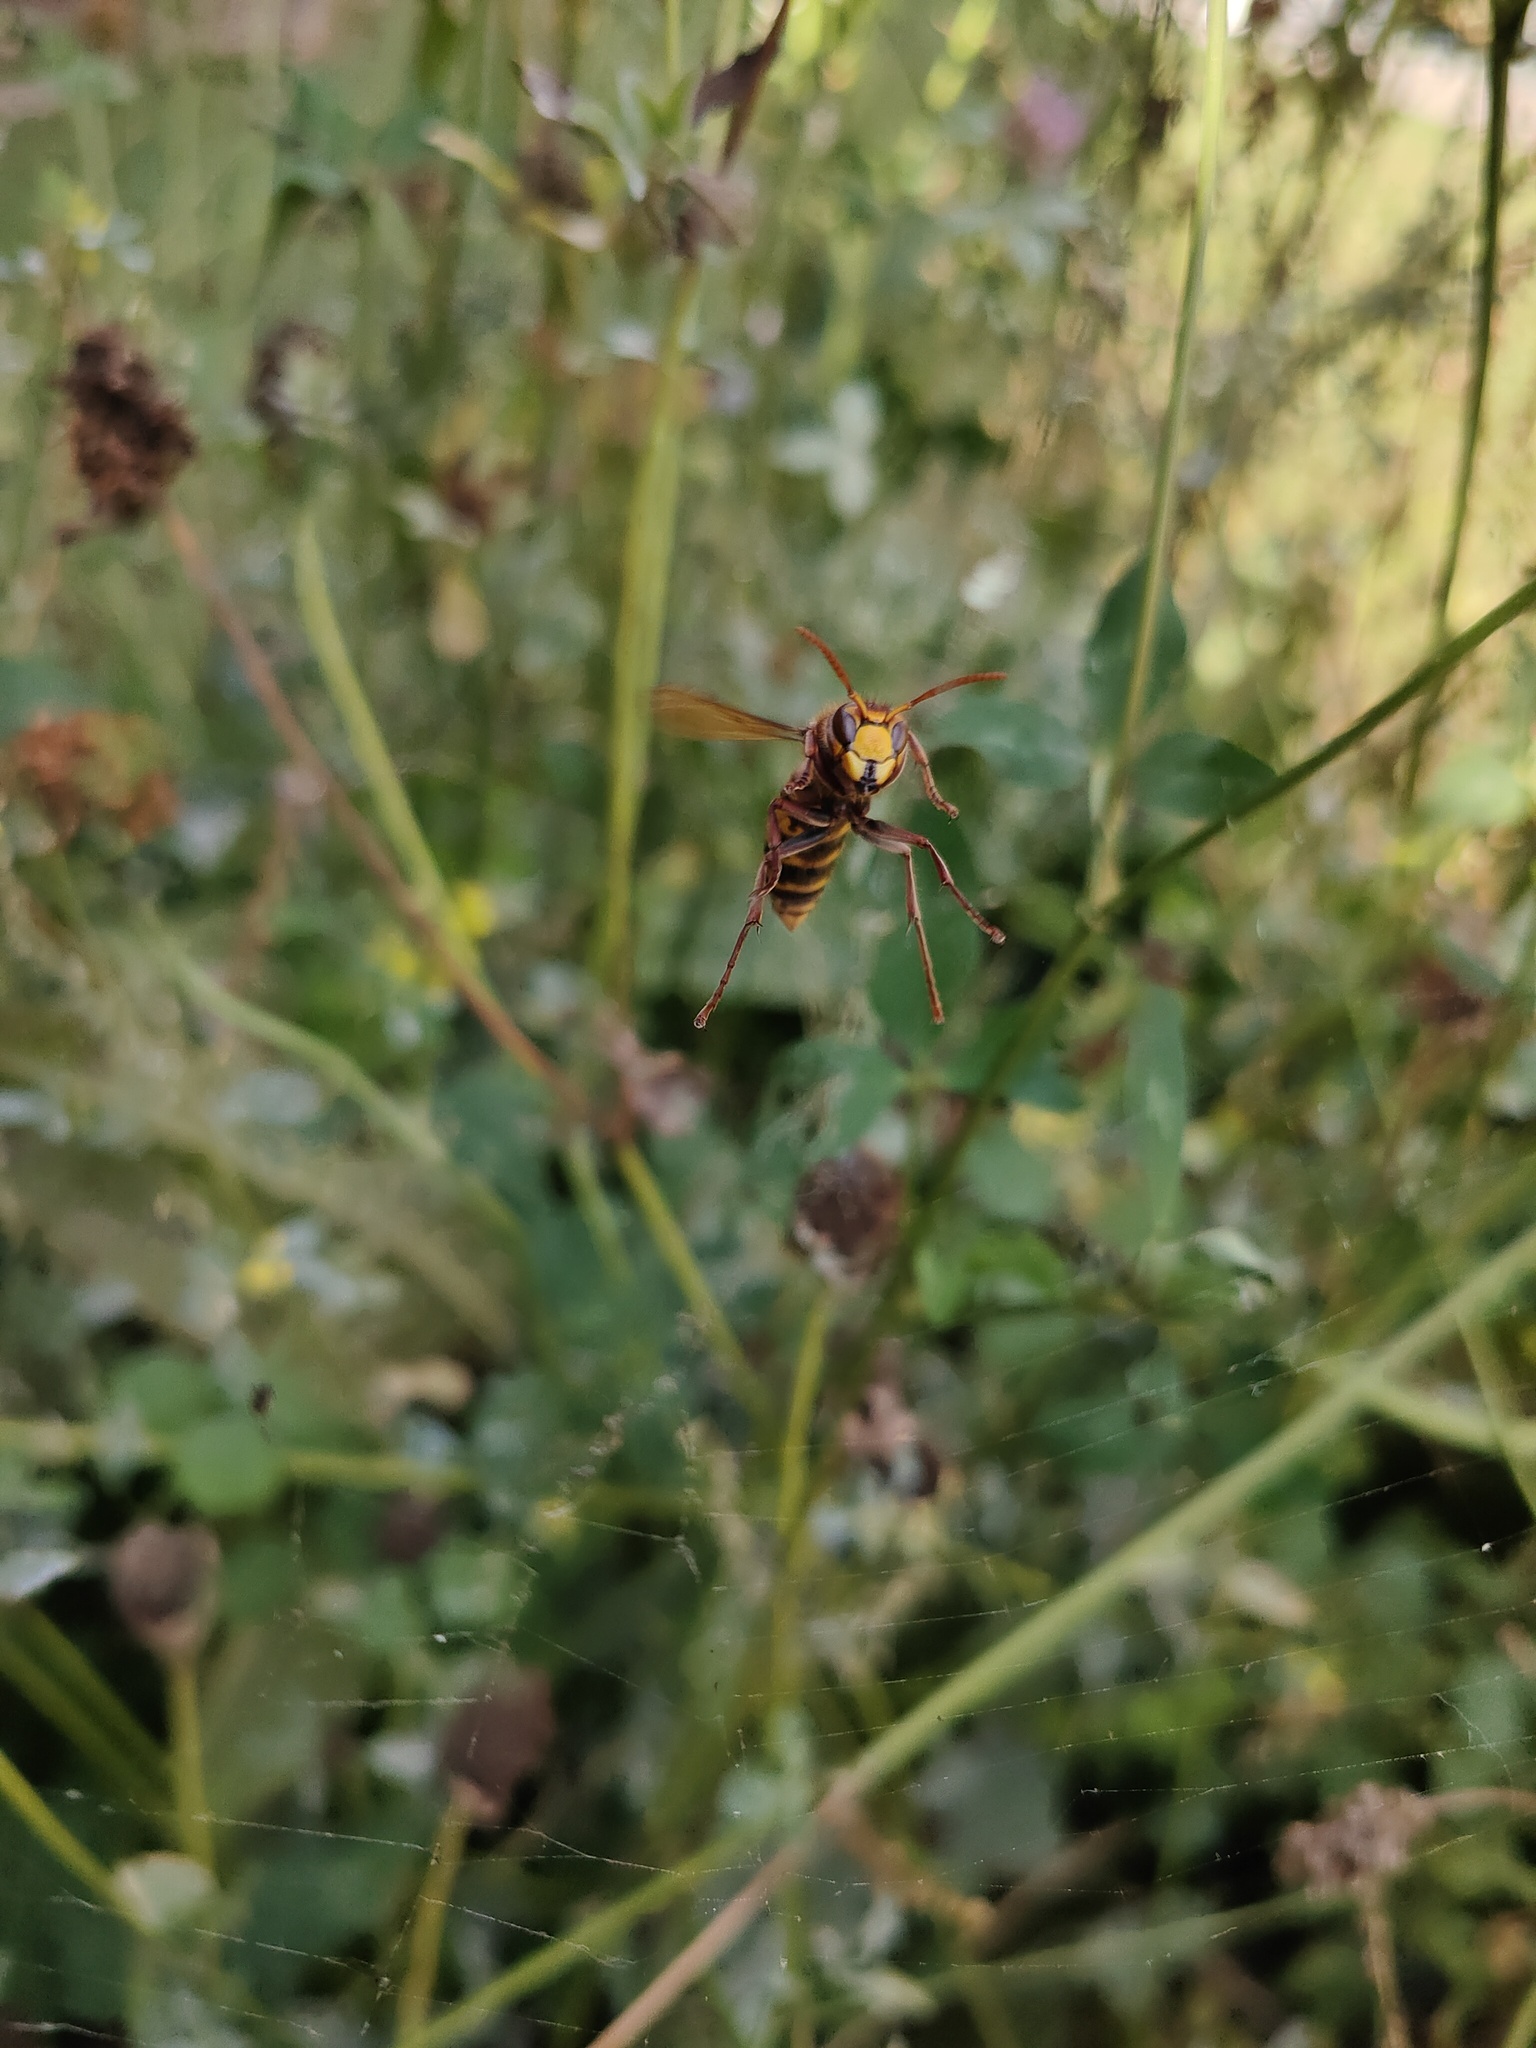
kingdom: Animalia
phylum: Arthropoda
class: Insecta
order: Hymenoptera
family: Vespidae
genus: Vespa
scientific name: Vespa crabro
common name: Hornet
